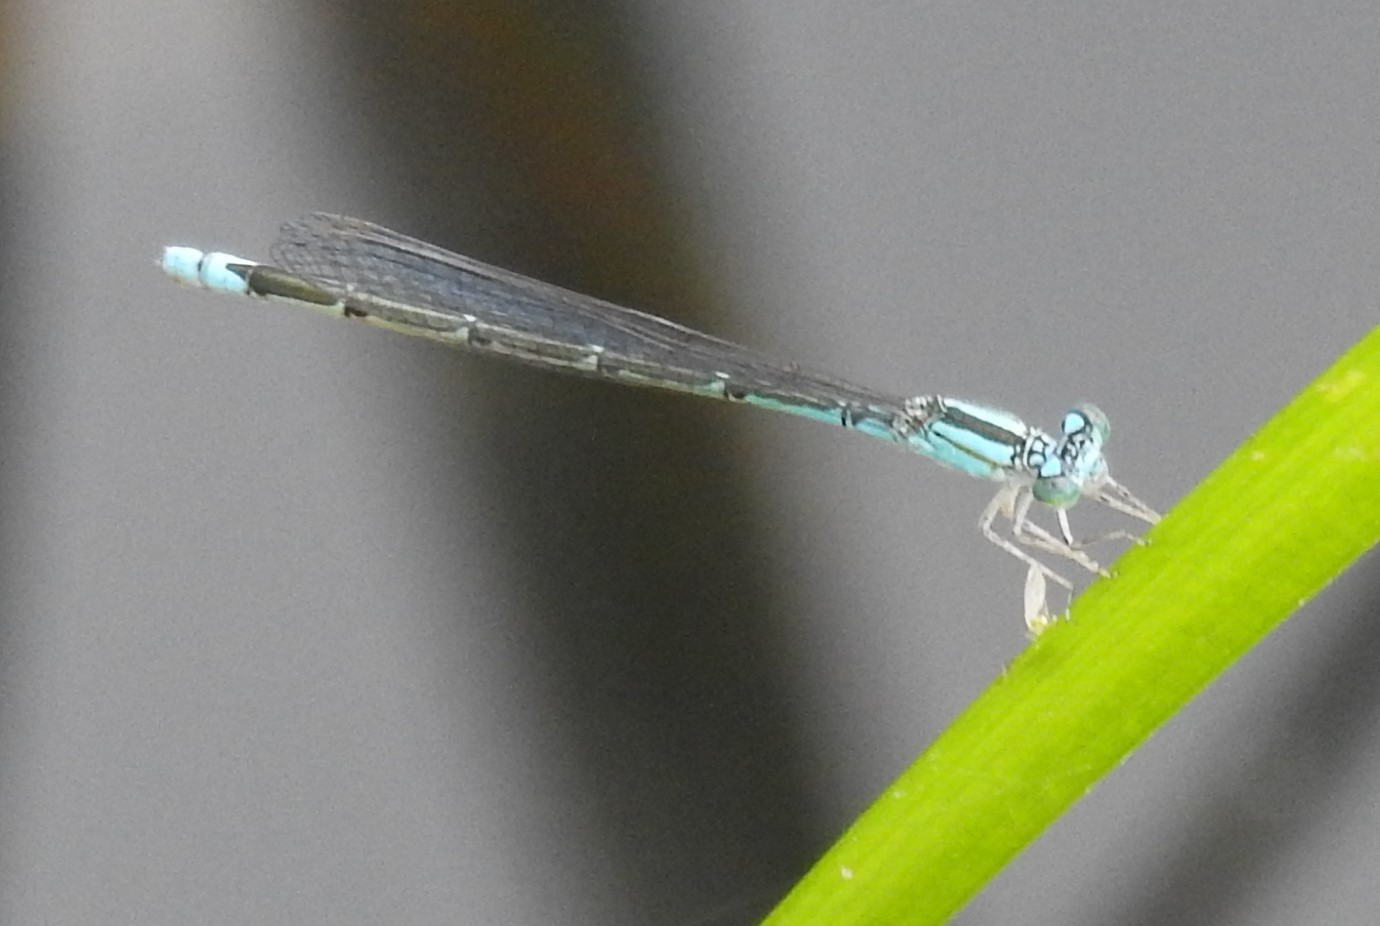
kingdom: Animalia
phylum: Arthropoda
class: Insecta
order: Odonata
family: Coenagrionidae
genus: Enallagma
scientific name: Enallagma traviatum
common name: Slender bluet
